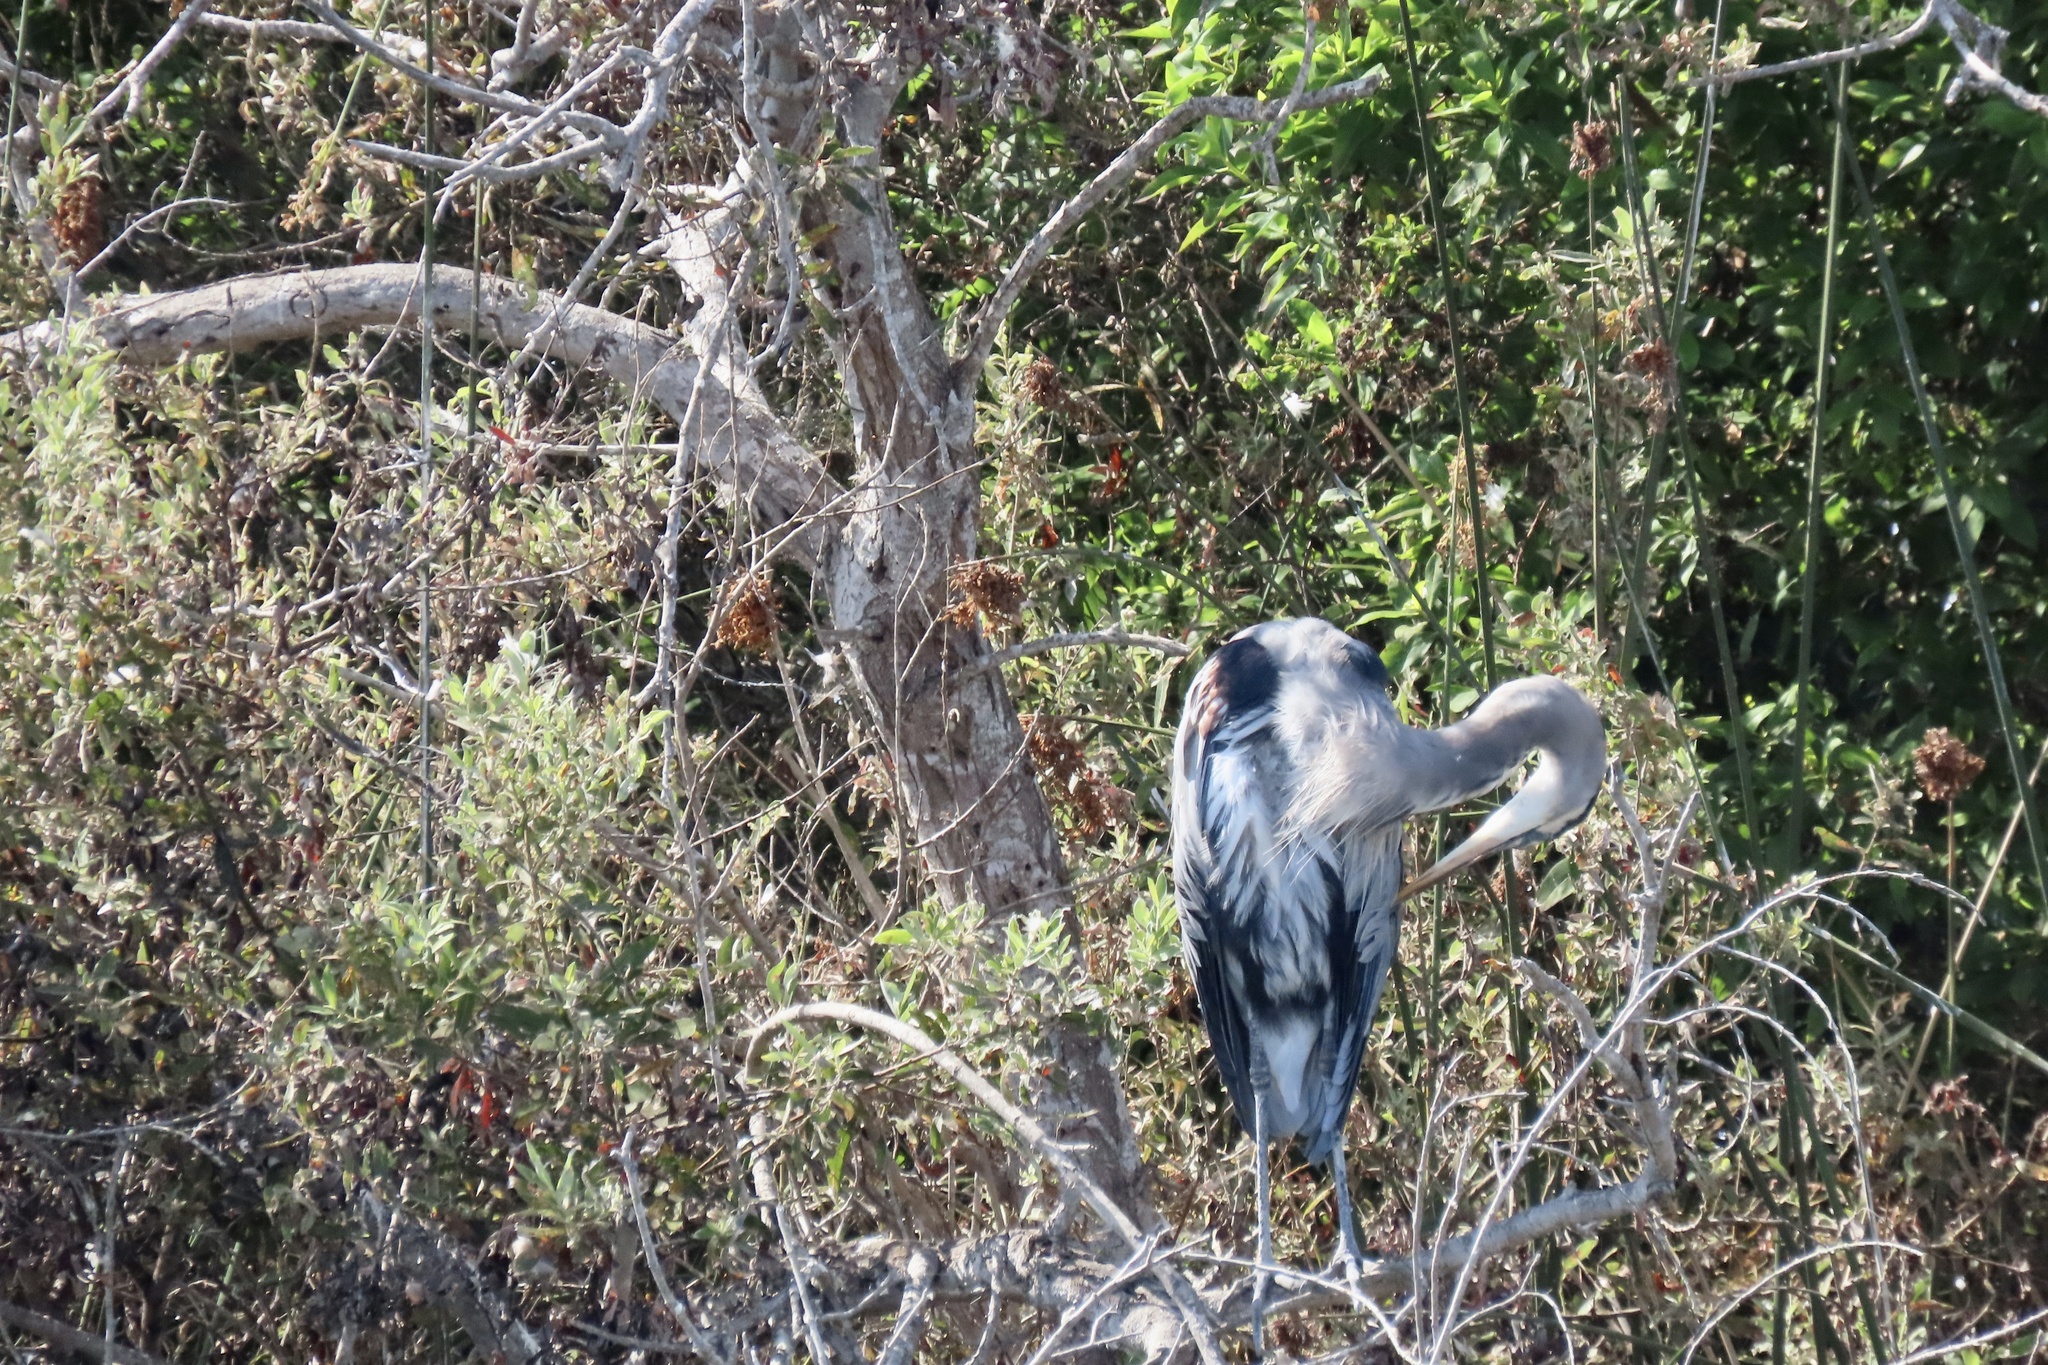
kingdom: Animalia
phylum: Chordata
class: Aves
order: Pelecaniformes
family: Ardeidae
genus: Ardea
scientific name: Ardea herodias
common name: Great blue heron
